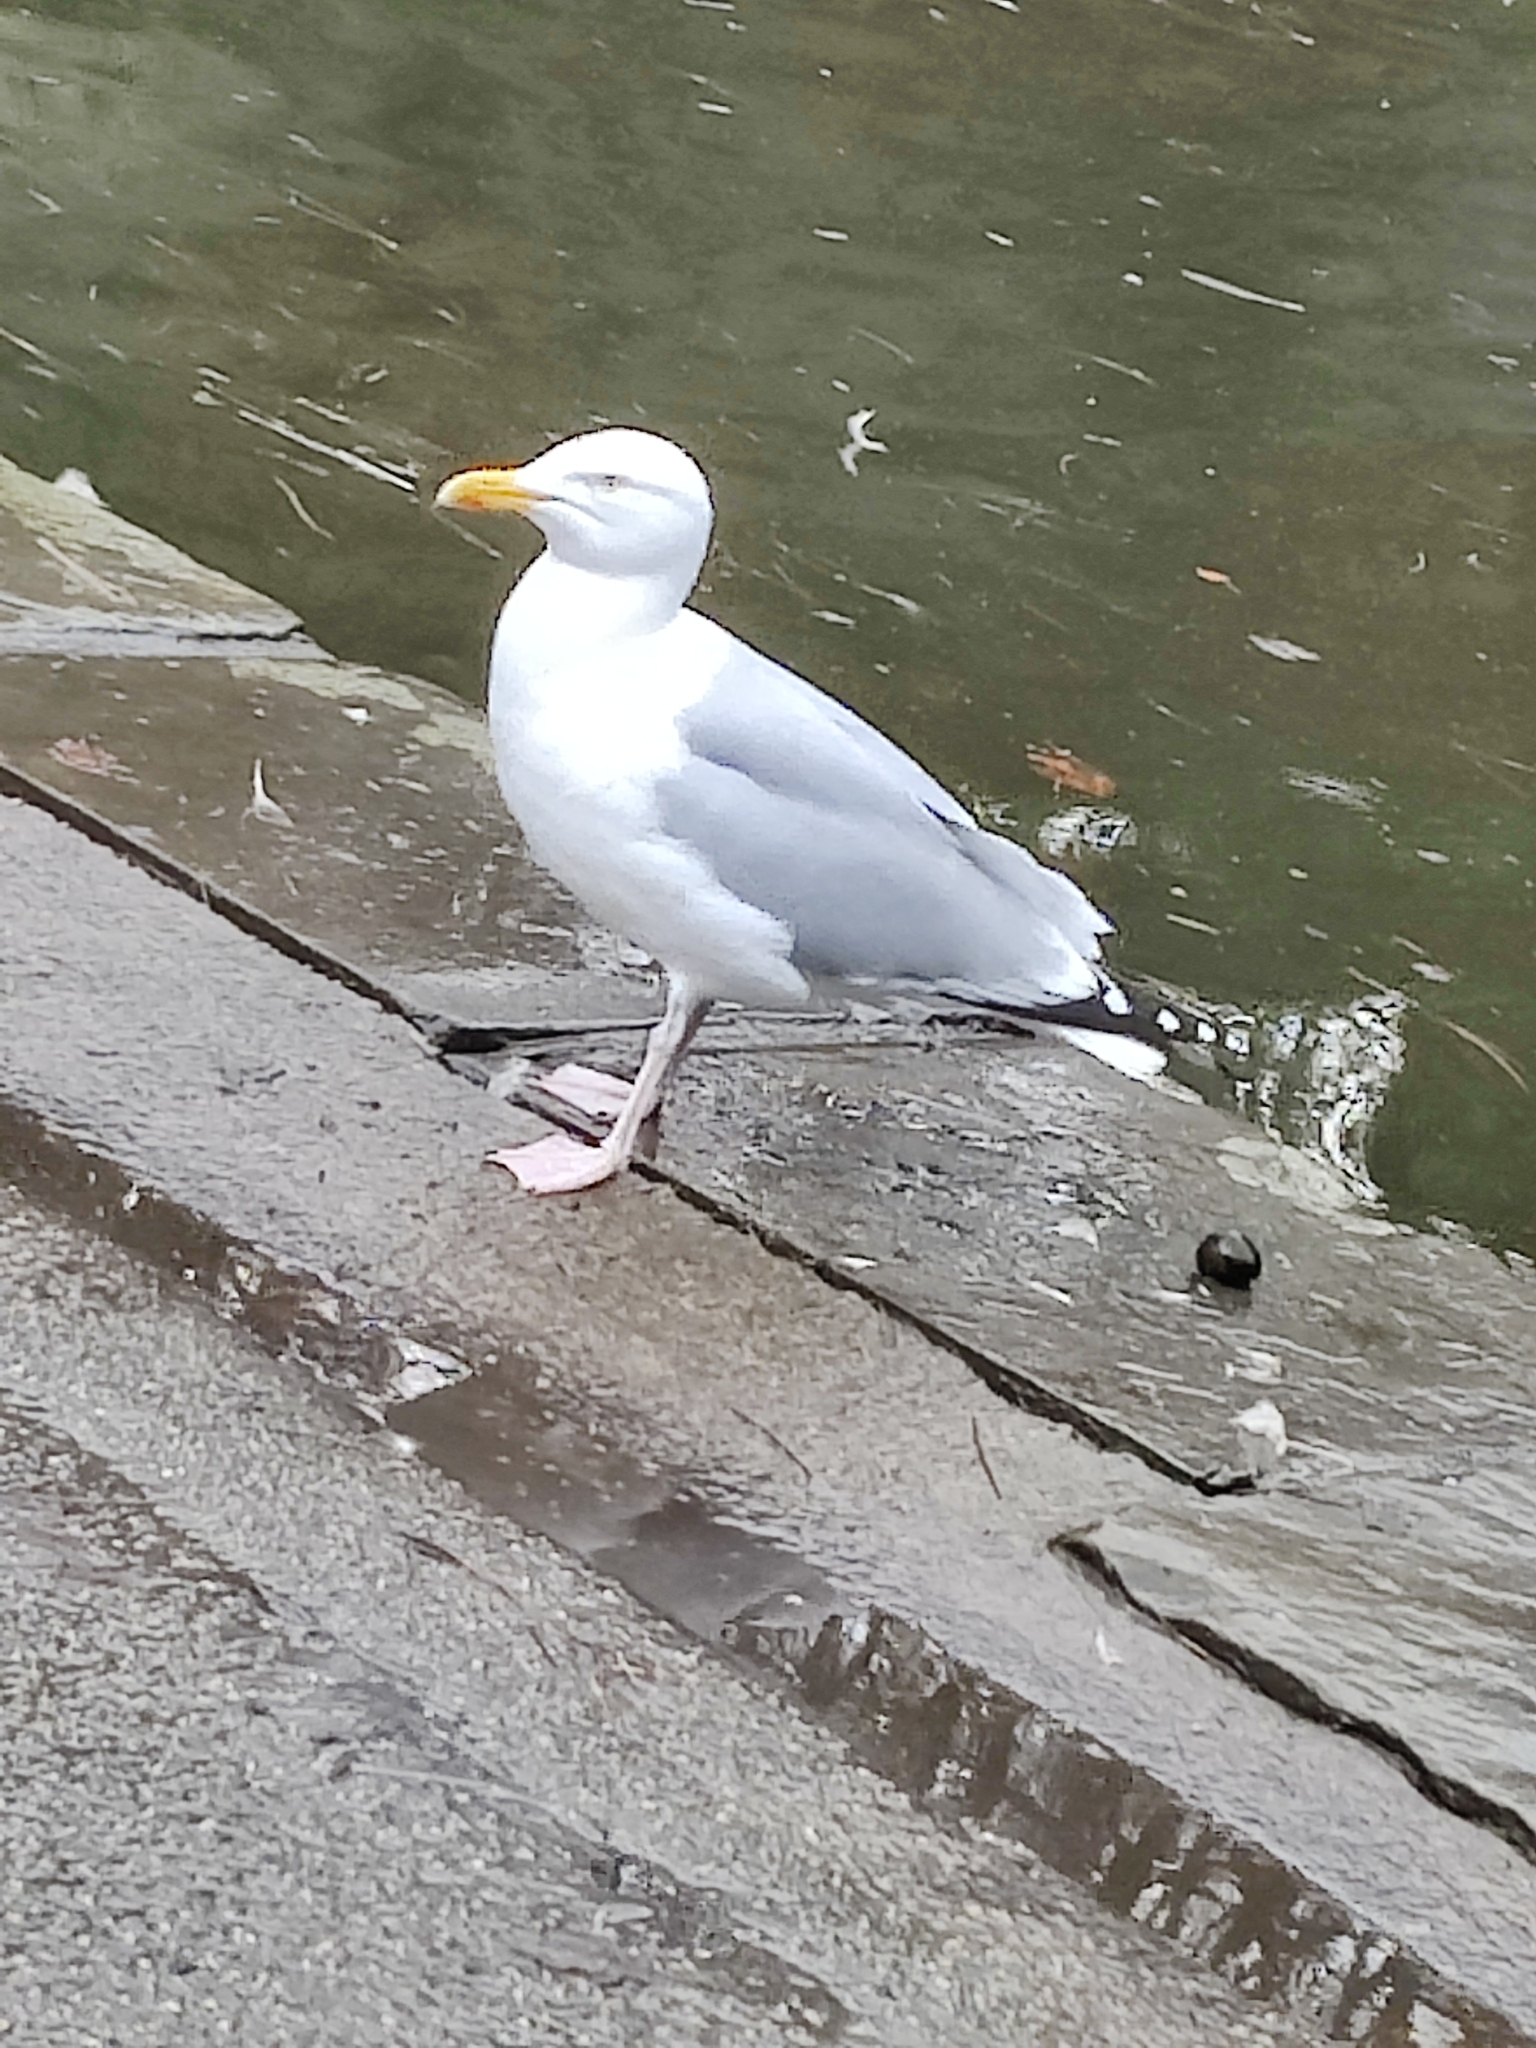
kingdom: Animalia
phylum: Chordata
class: Aves
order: Charadriiformes
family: Laridae
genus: Larus
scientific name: Larus argentatus
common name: Herring gull
